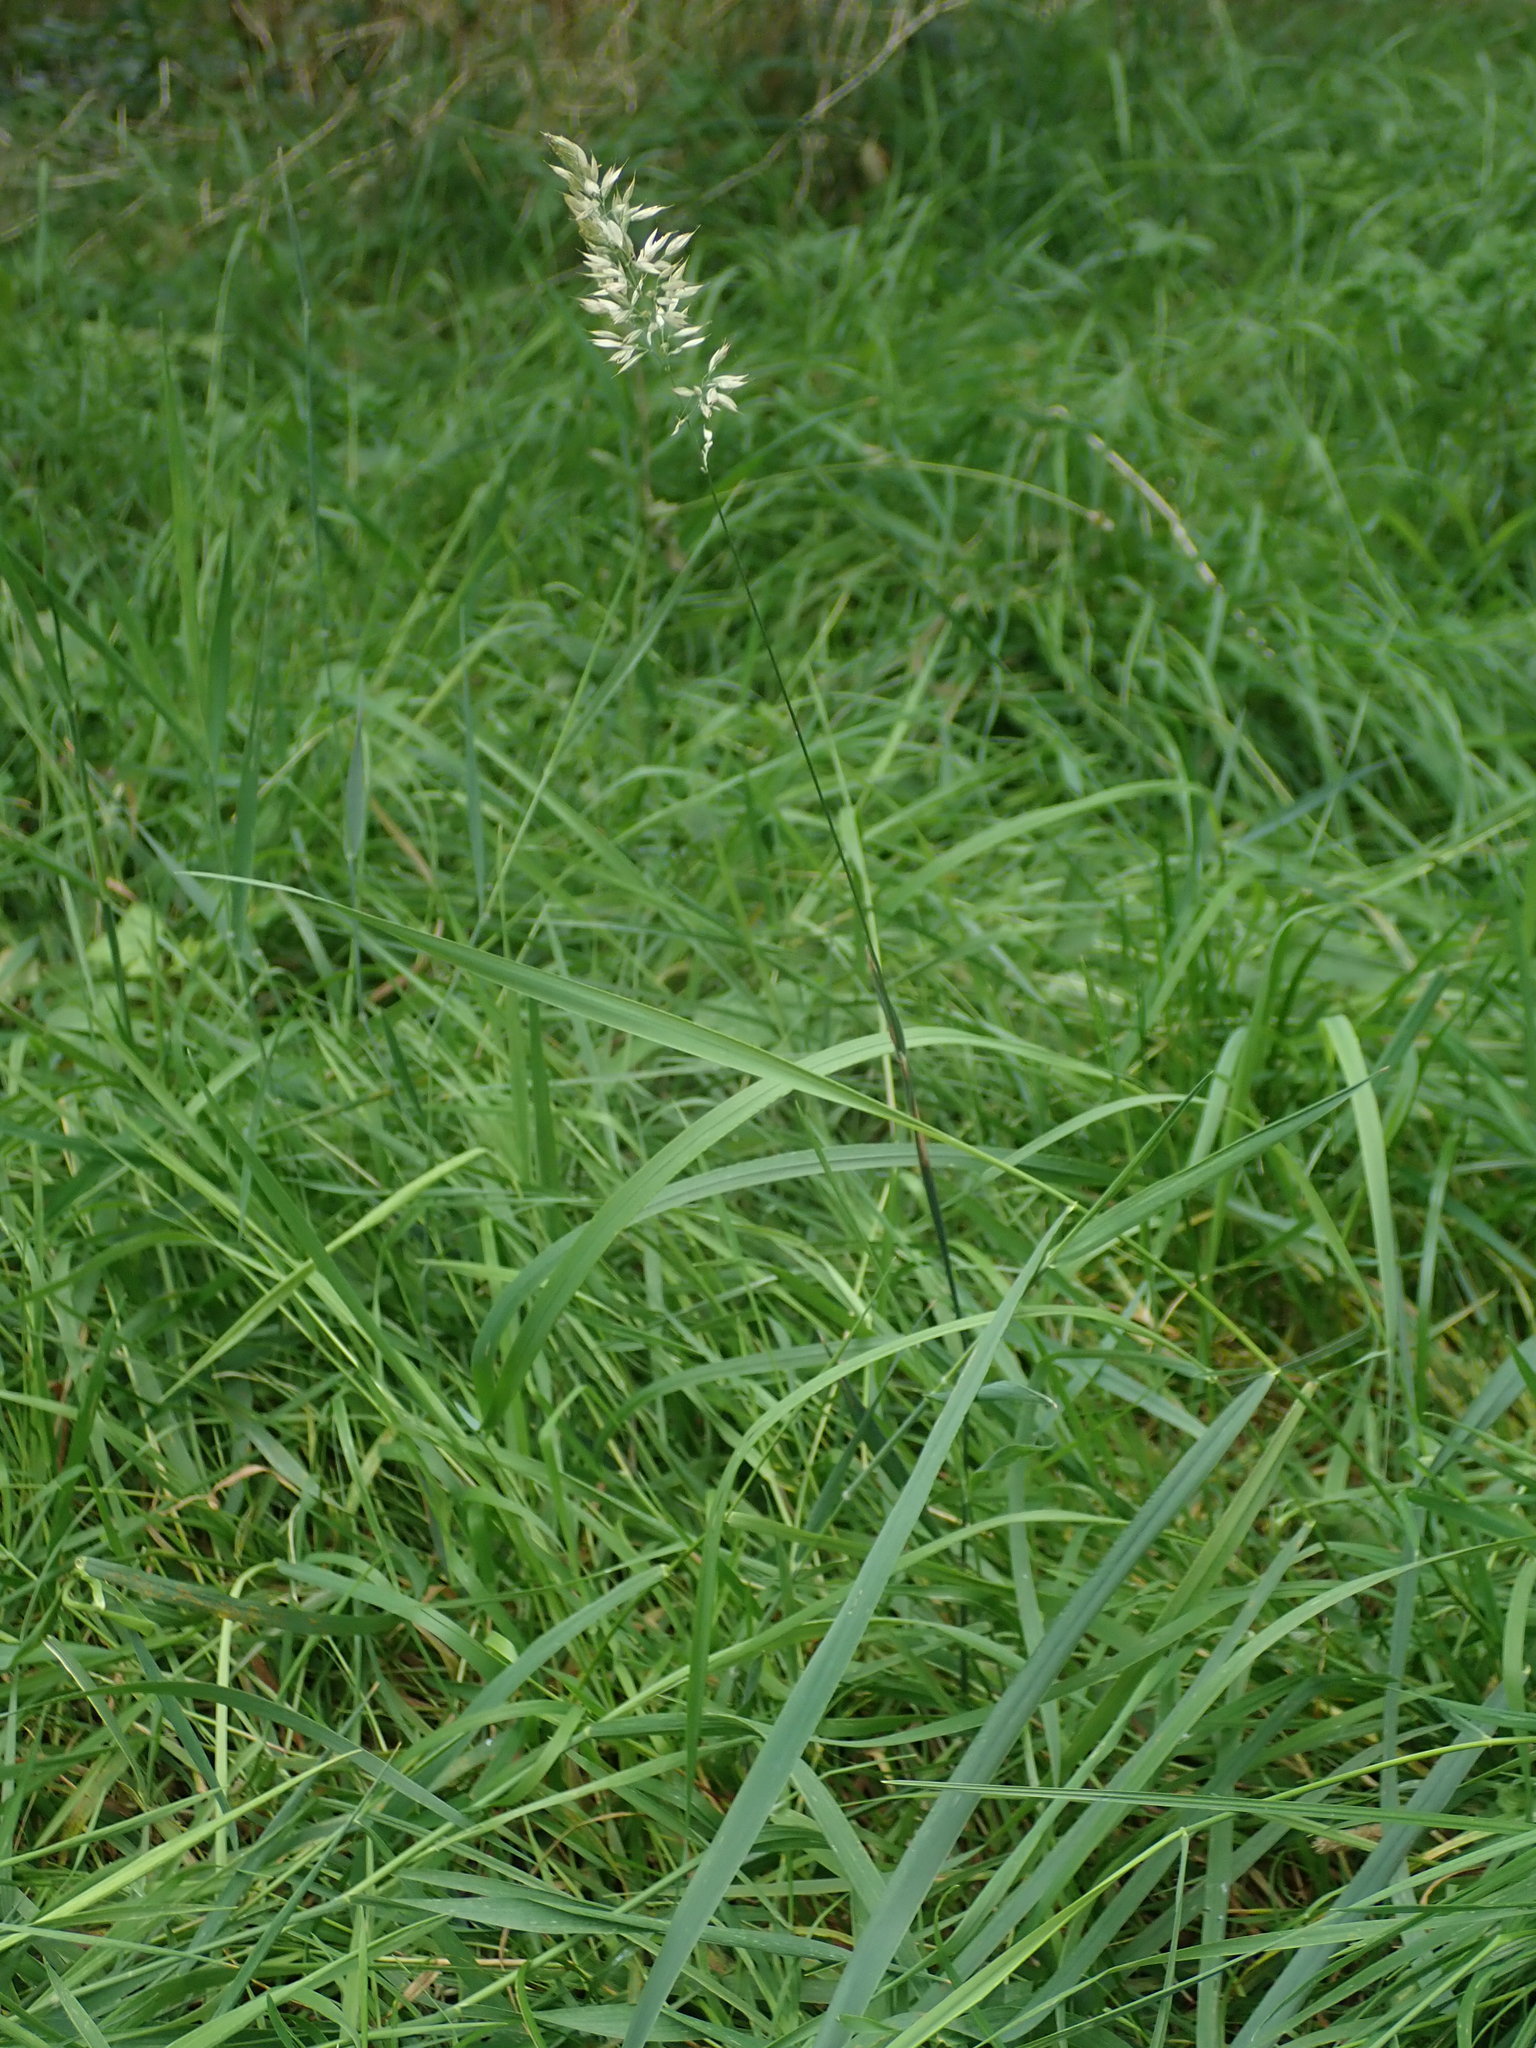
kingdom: Plantae
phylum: Tracheophyta
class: Liliopsida
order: Poales
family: Poaceae
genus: Holcus
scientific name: Holcus mollis
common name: Creeping velvetgrass
